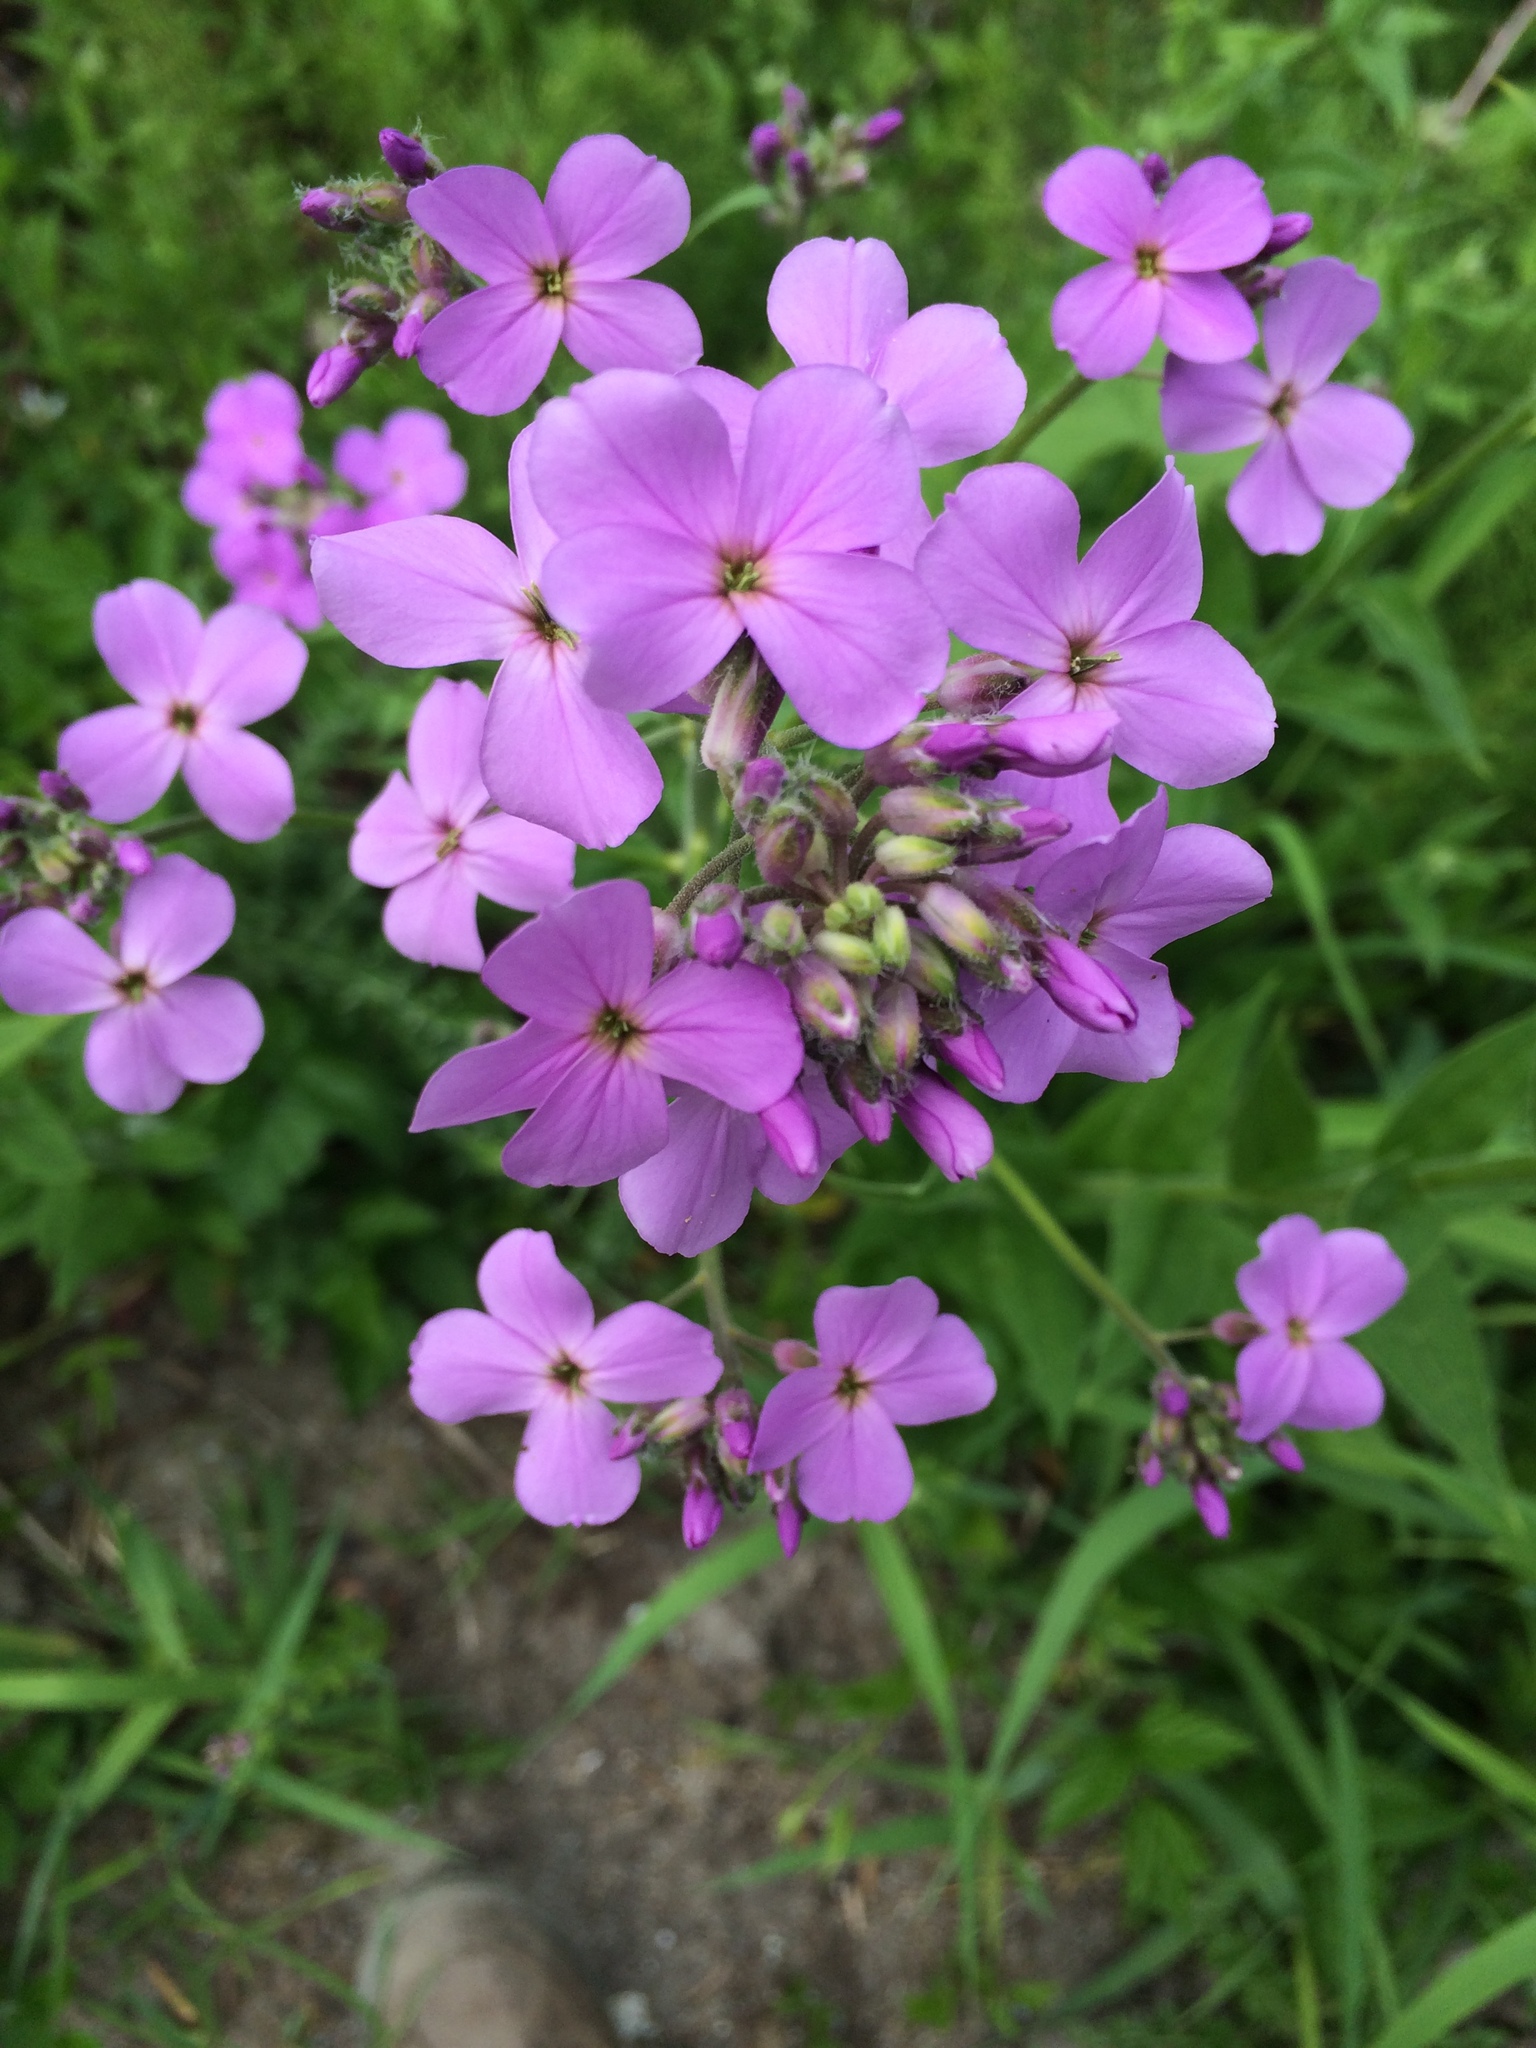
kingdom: Plantae
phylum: Tracheophyta
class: Magnoliopsida
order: Brassicales
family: Brassicaceae
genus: Hesperis
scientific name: Hesperis matronalis
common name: Dame's-violet
